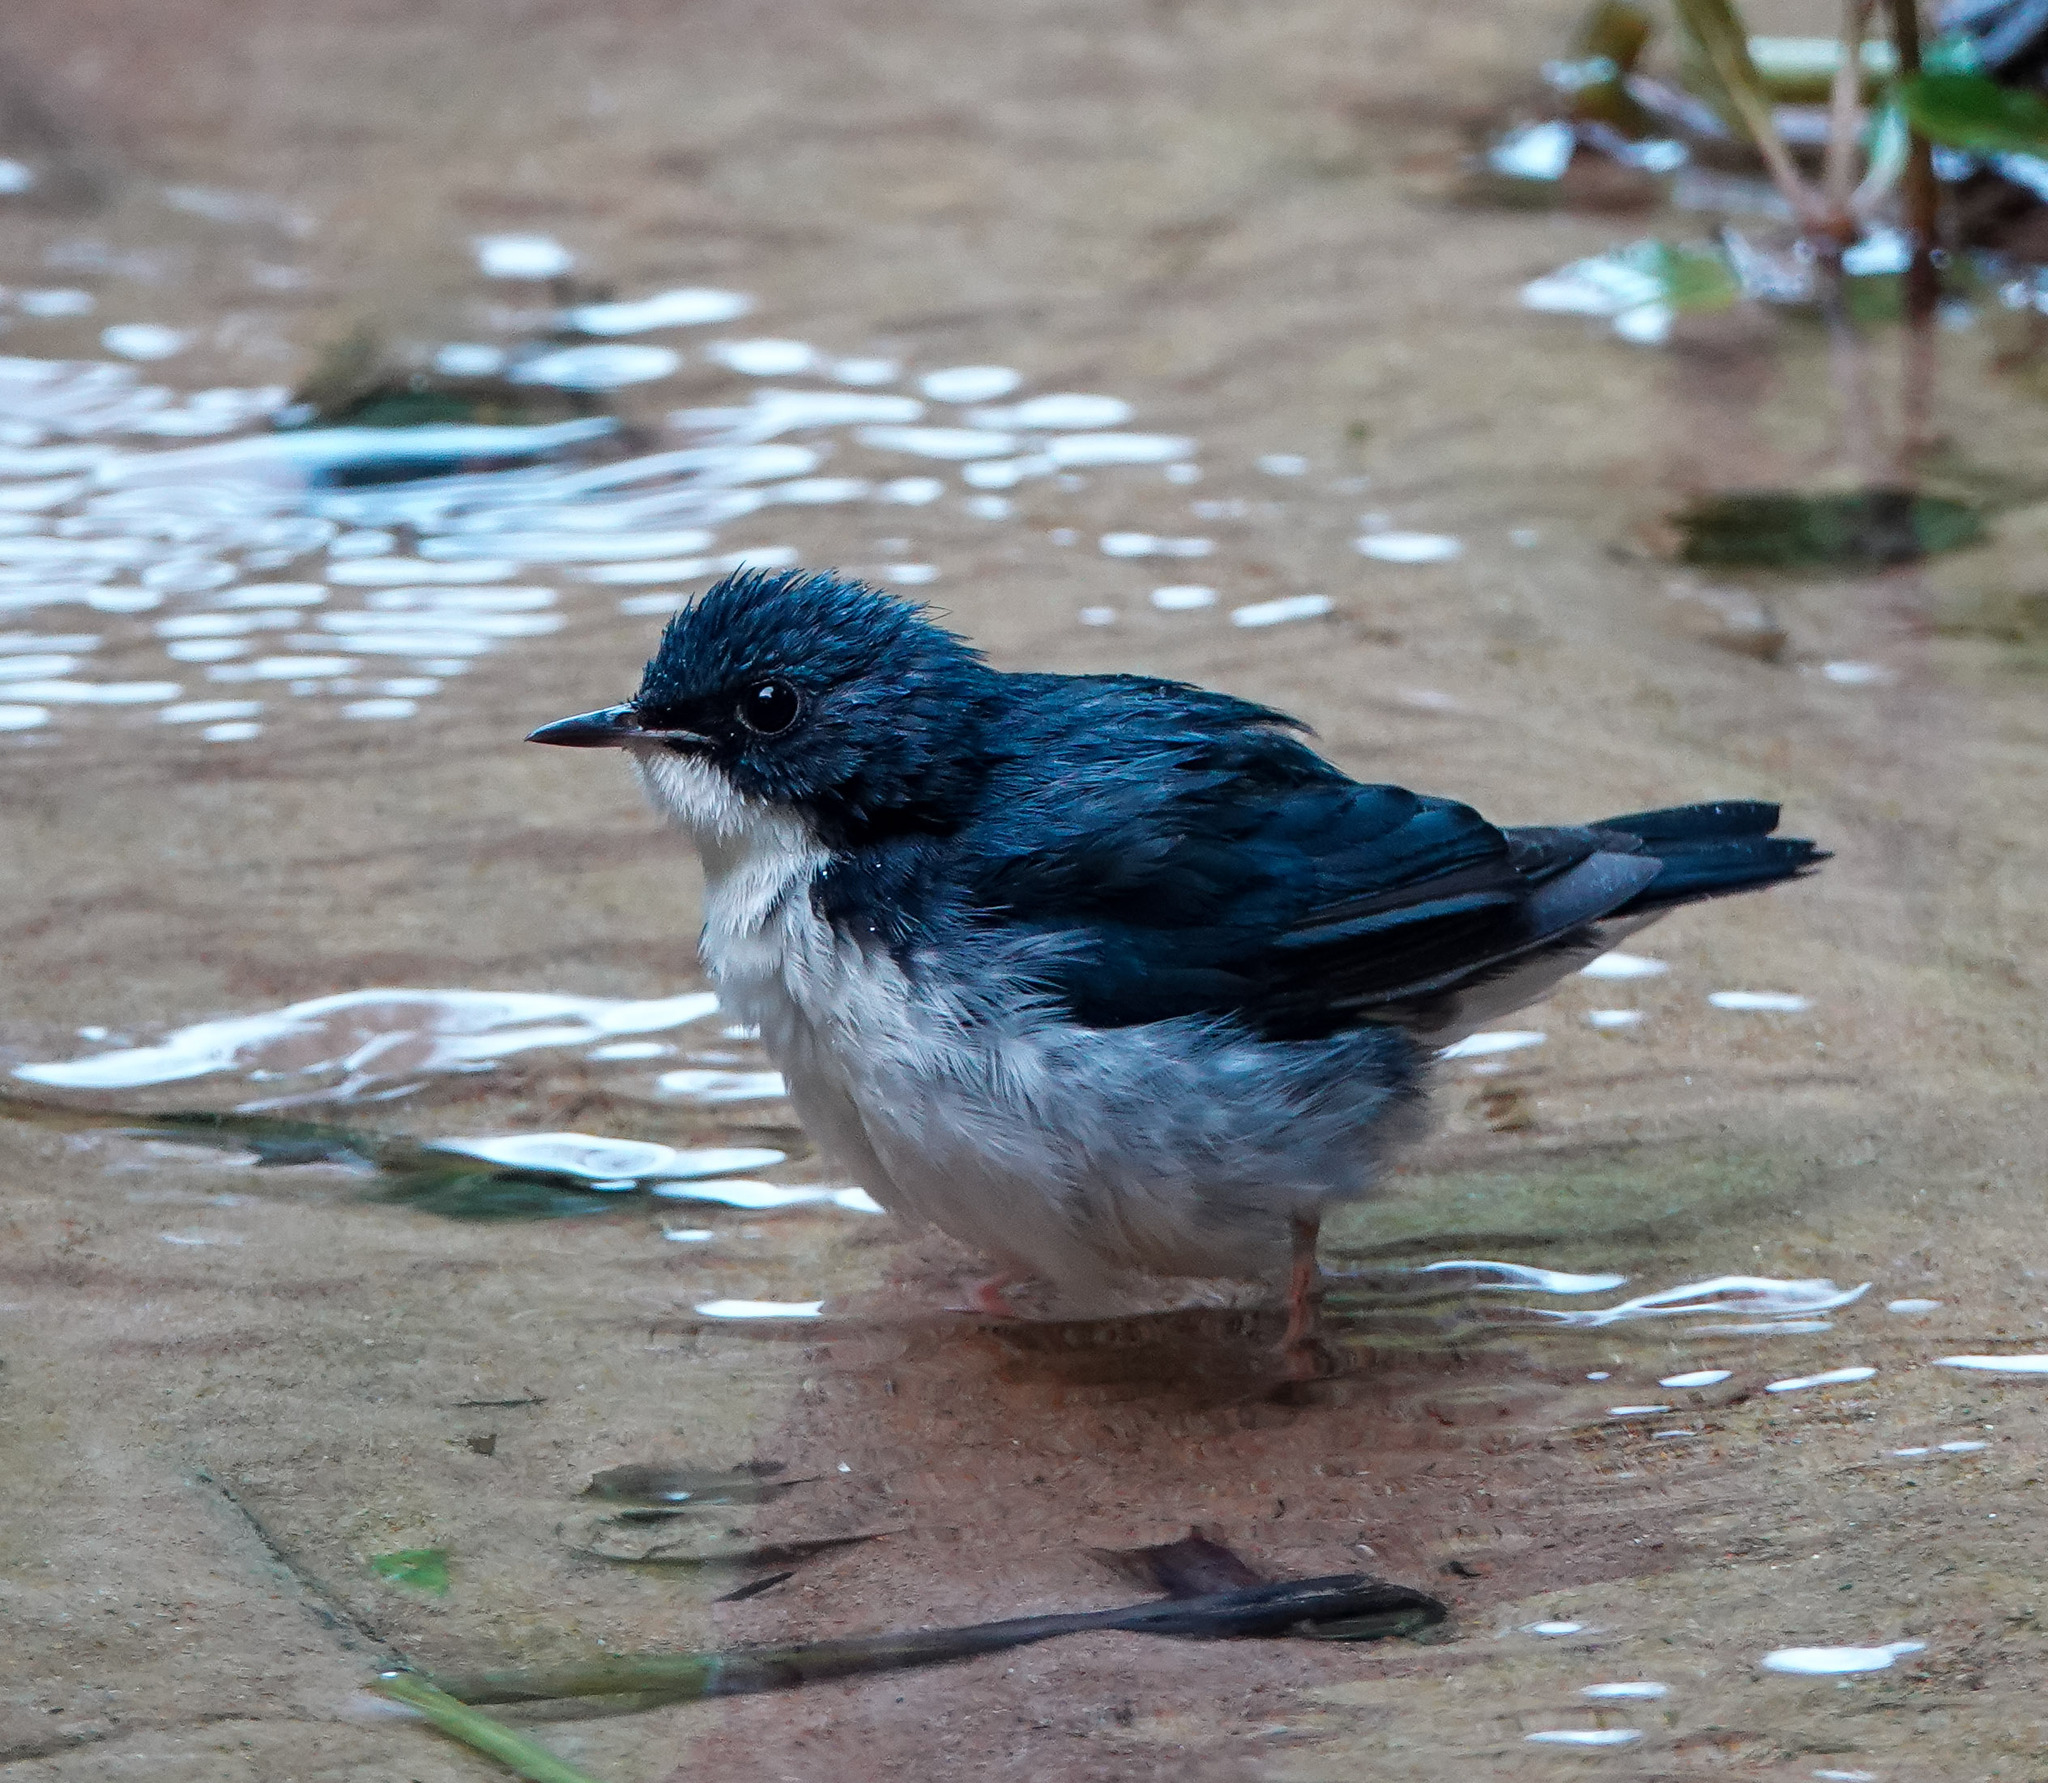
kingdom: Animalia
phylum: Chordata
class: Aves
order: Passeriformes
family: Muscicapidae
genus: Luscinia
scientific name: Luscinia cyane
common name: Siberian blue robin
